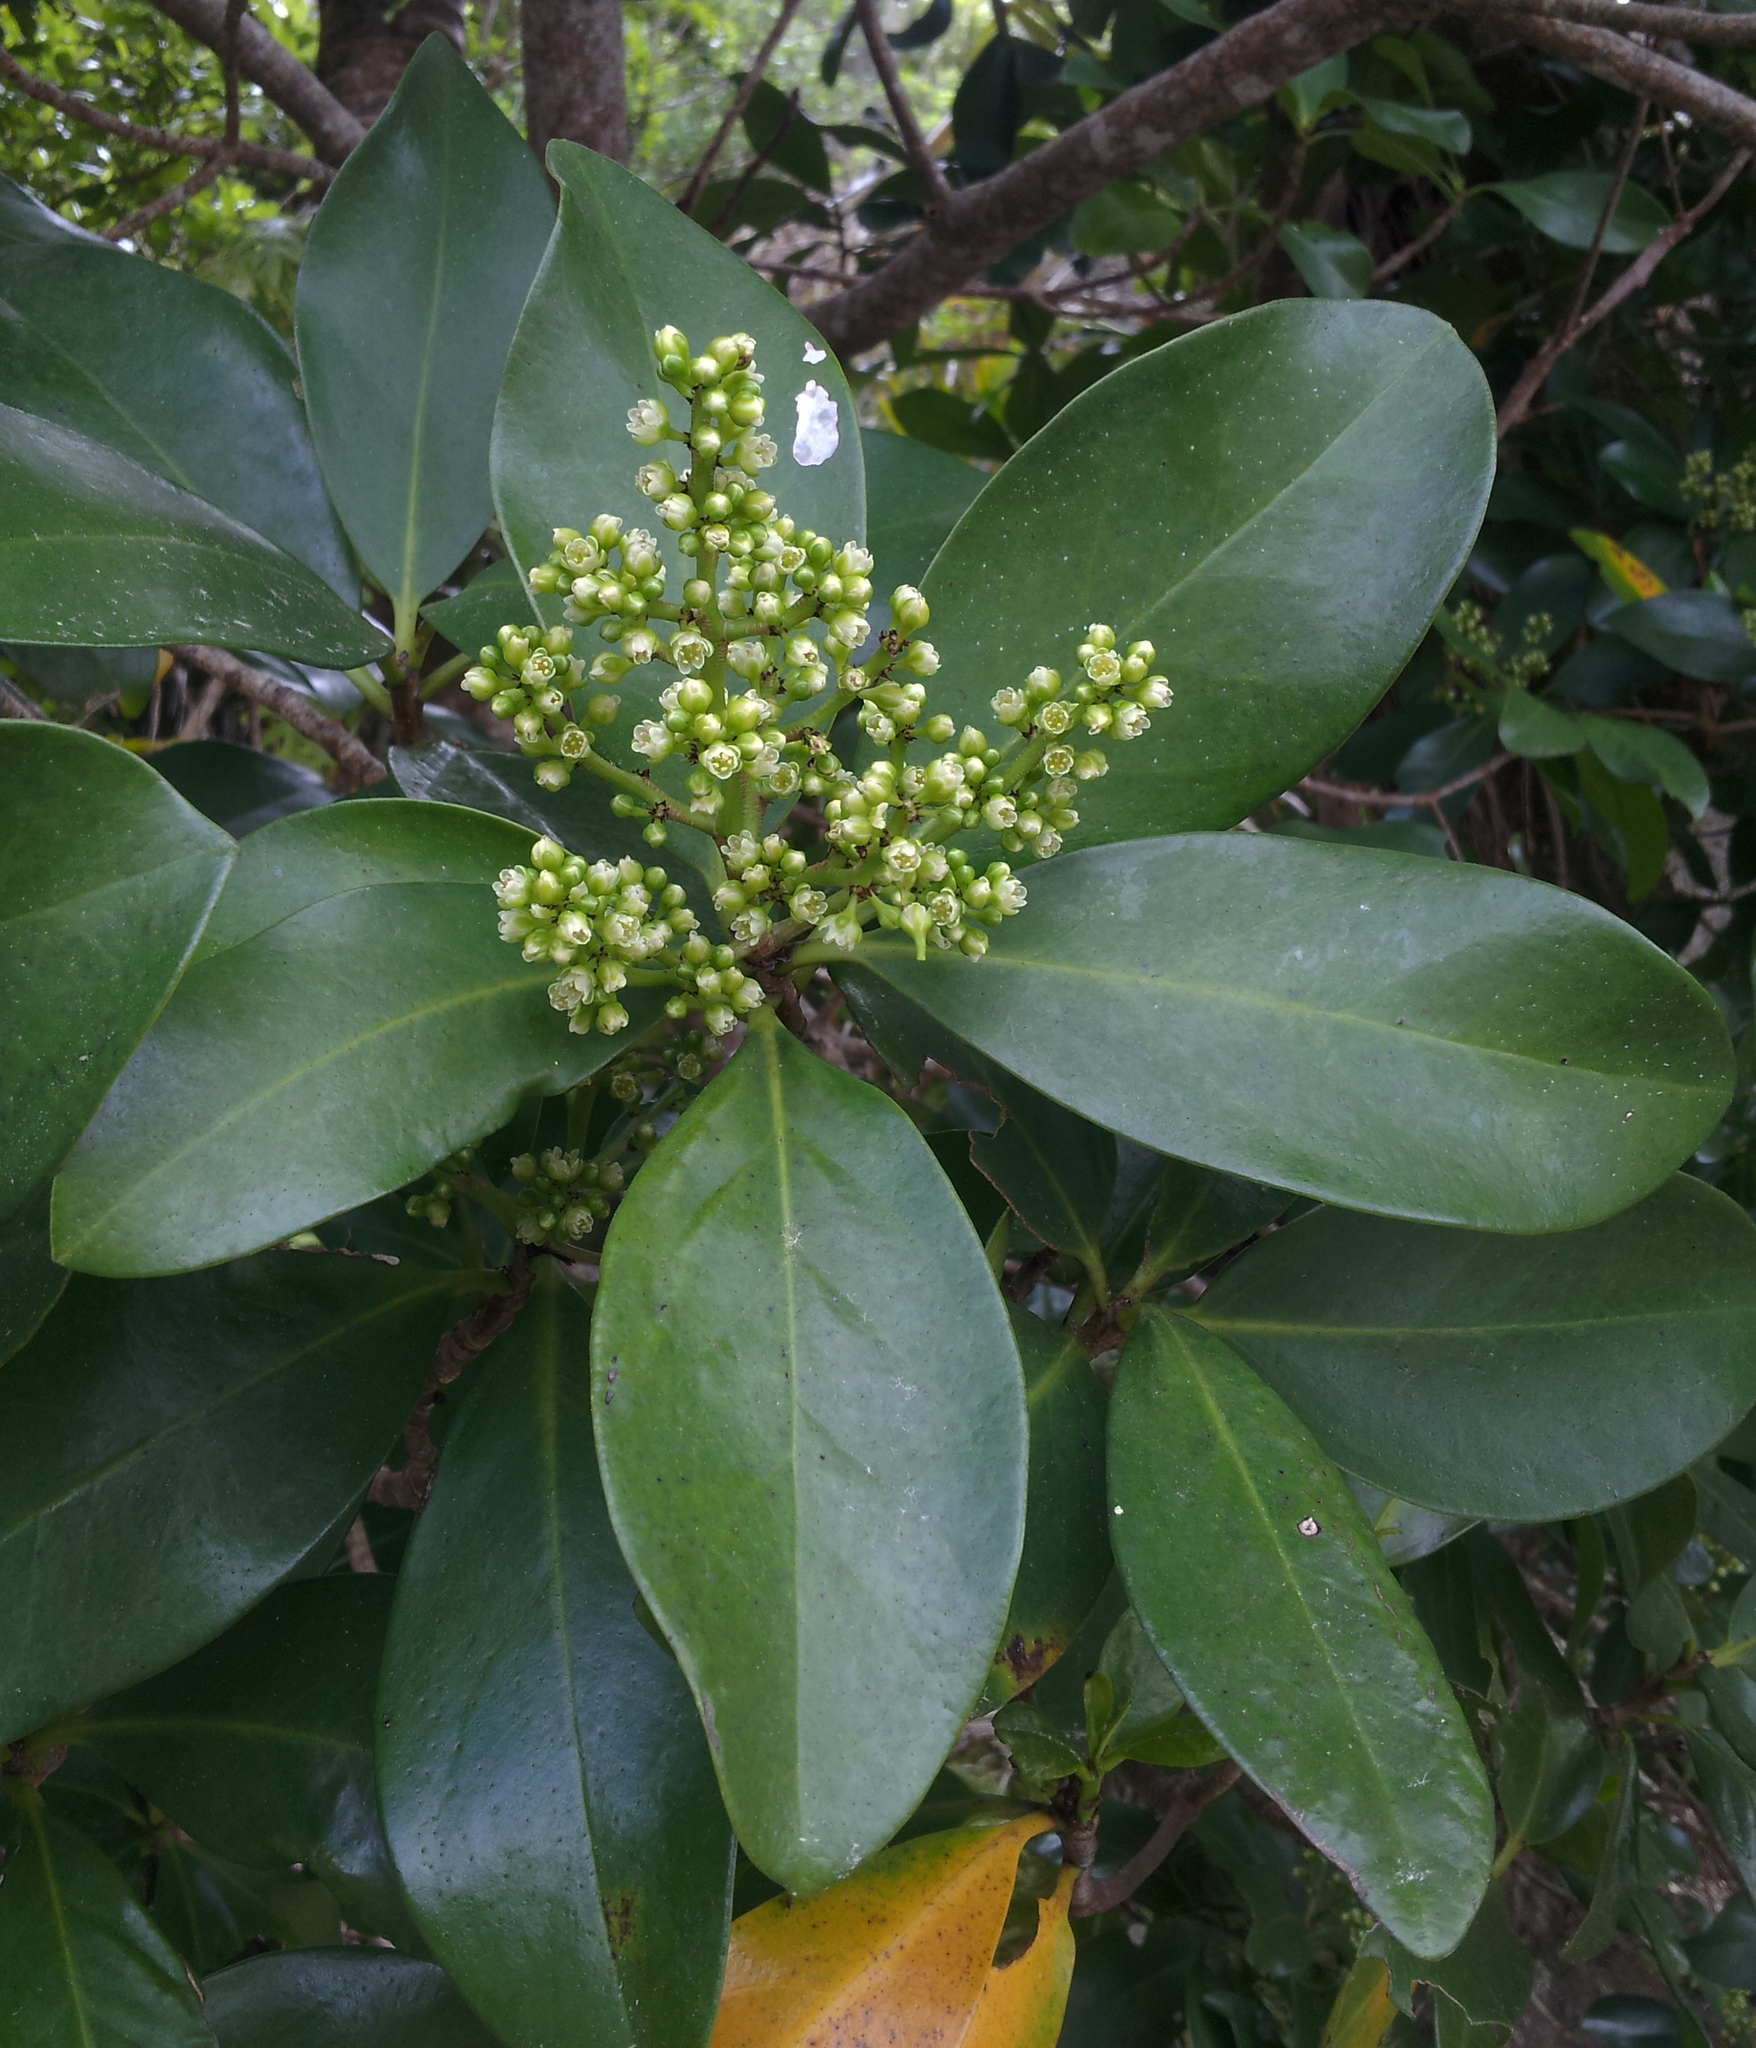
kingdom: Plantae
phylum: Tracheophyta
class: Magnoliopsida
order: Cucurbitales
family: Corynocarpaceae
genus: Corynocarpus
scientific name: Corynocarpus laevigatus
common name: New zealand laurel
